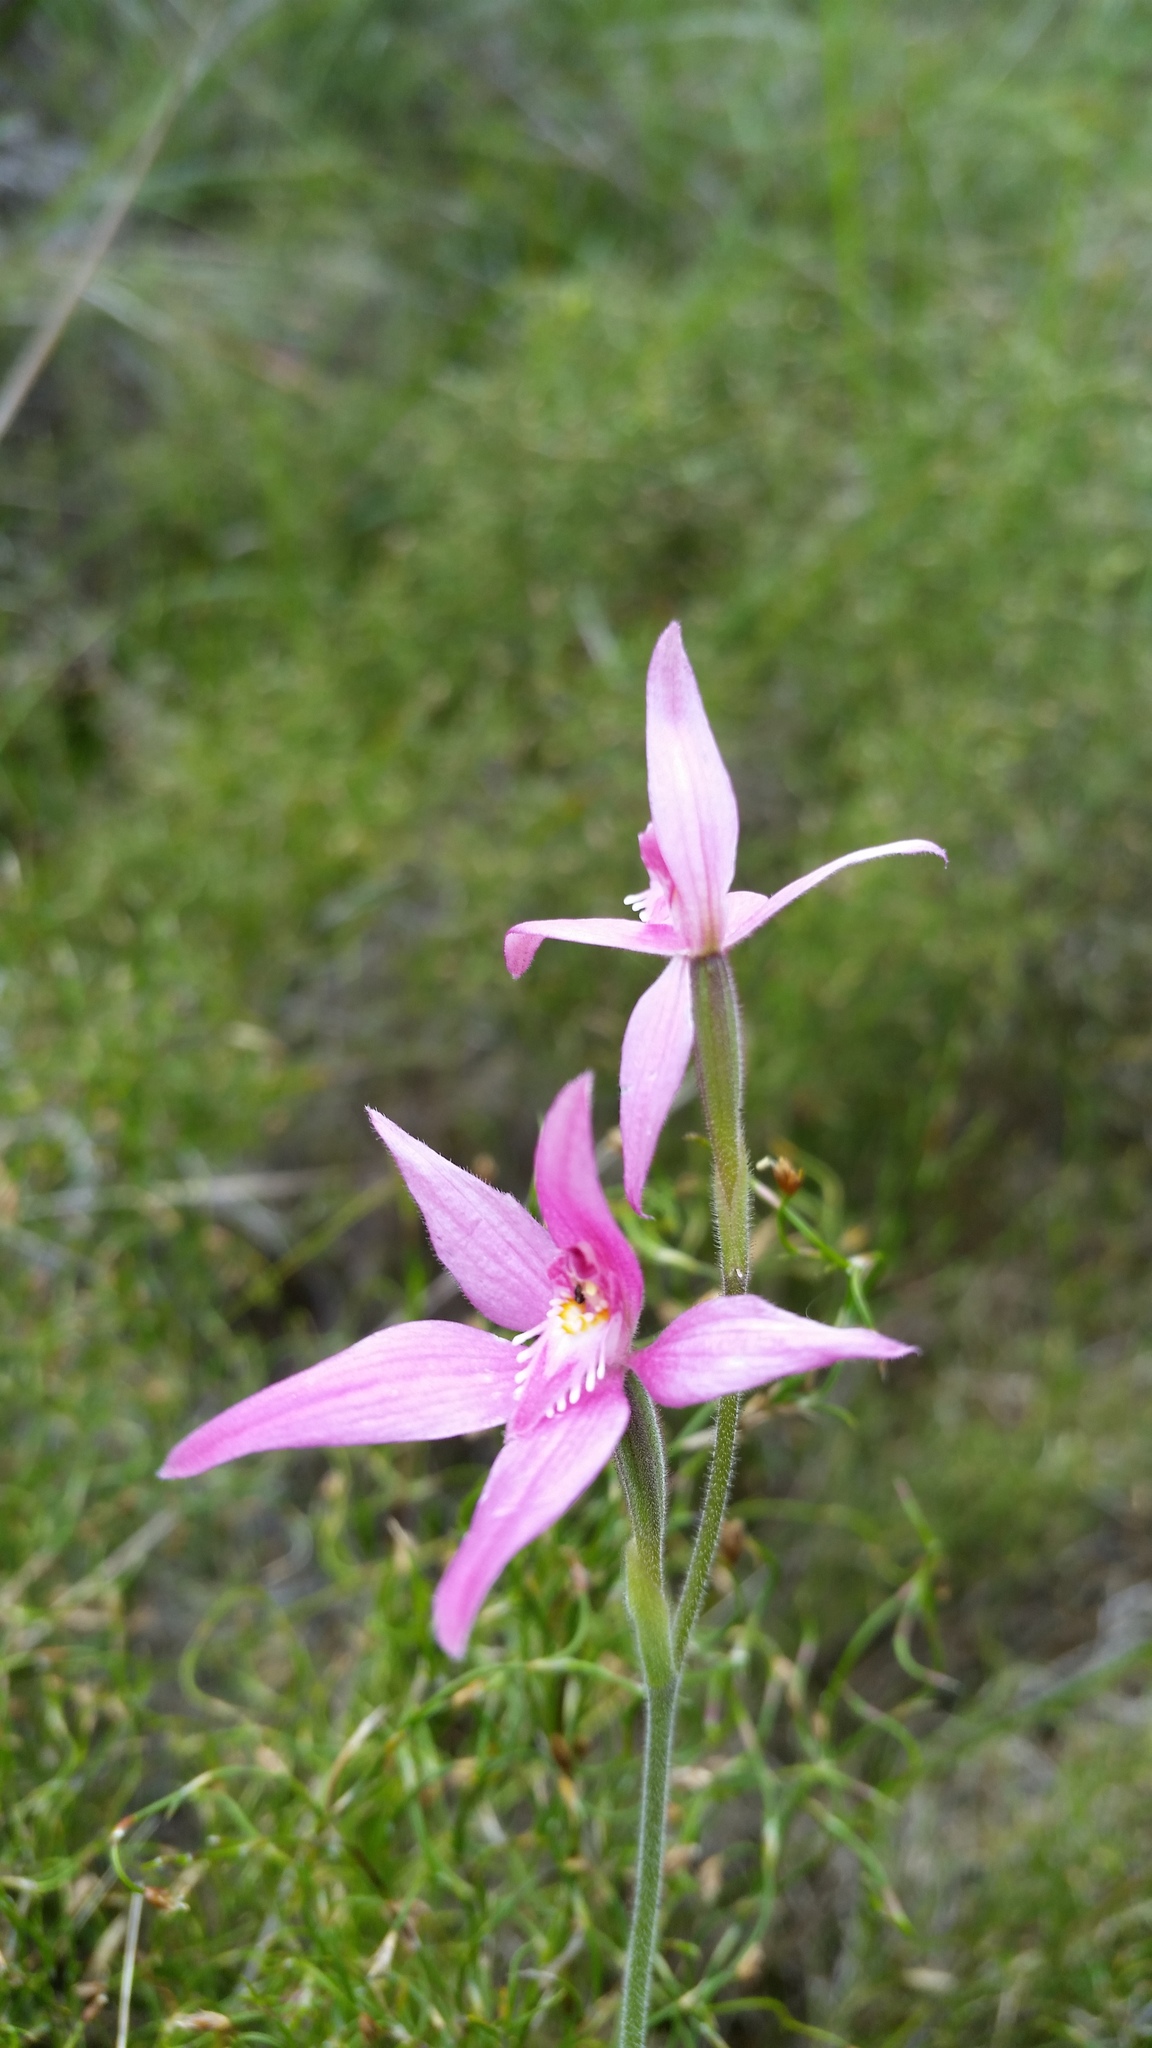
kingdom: Plantae
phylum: Tracheophyta
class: Liliopsida
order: Asparagales
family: Orchidaceae
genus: Caladenia
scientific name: Caladenia latifolia
